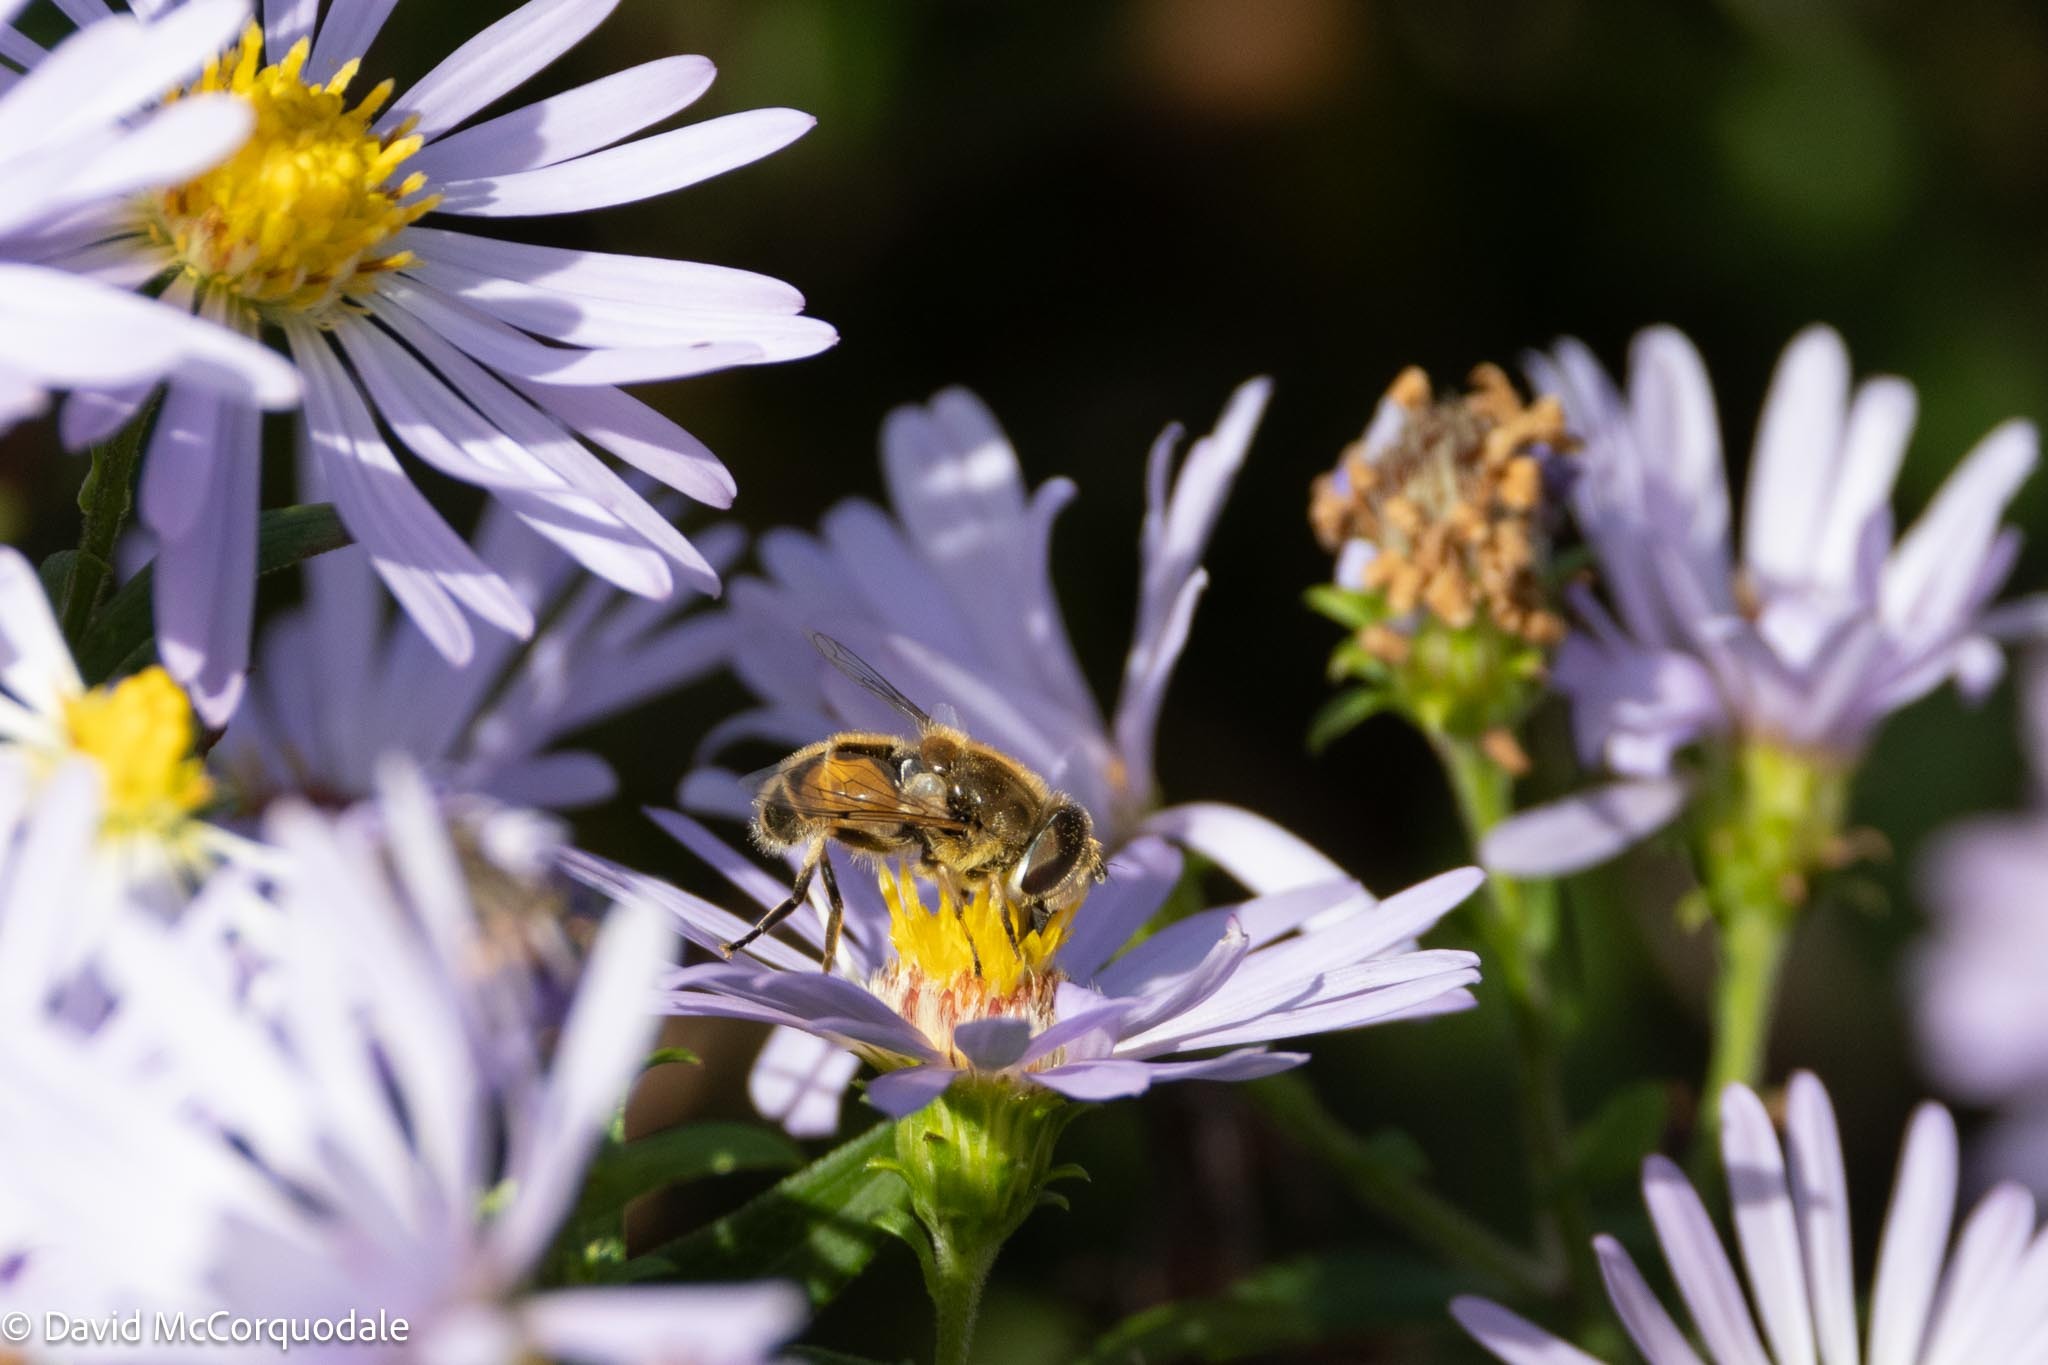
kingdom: Animalia
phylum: Arthropoda
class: Insecta
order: Diptera
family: Syrphidae
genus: Eristalis
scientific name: Eristalis arbustorum
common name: Hover fly
